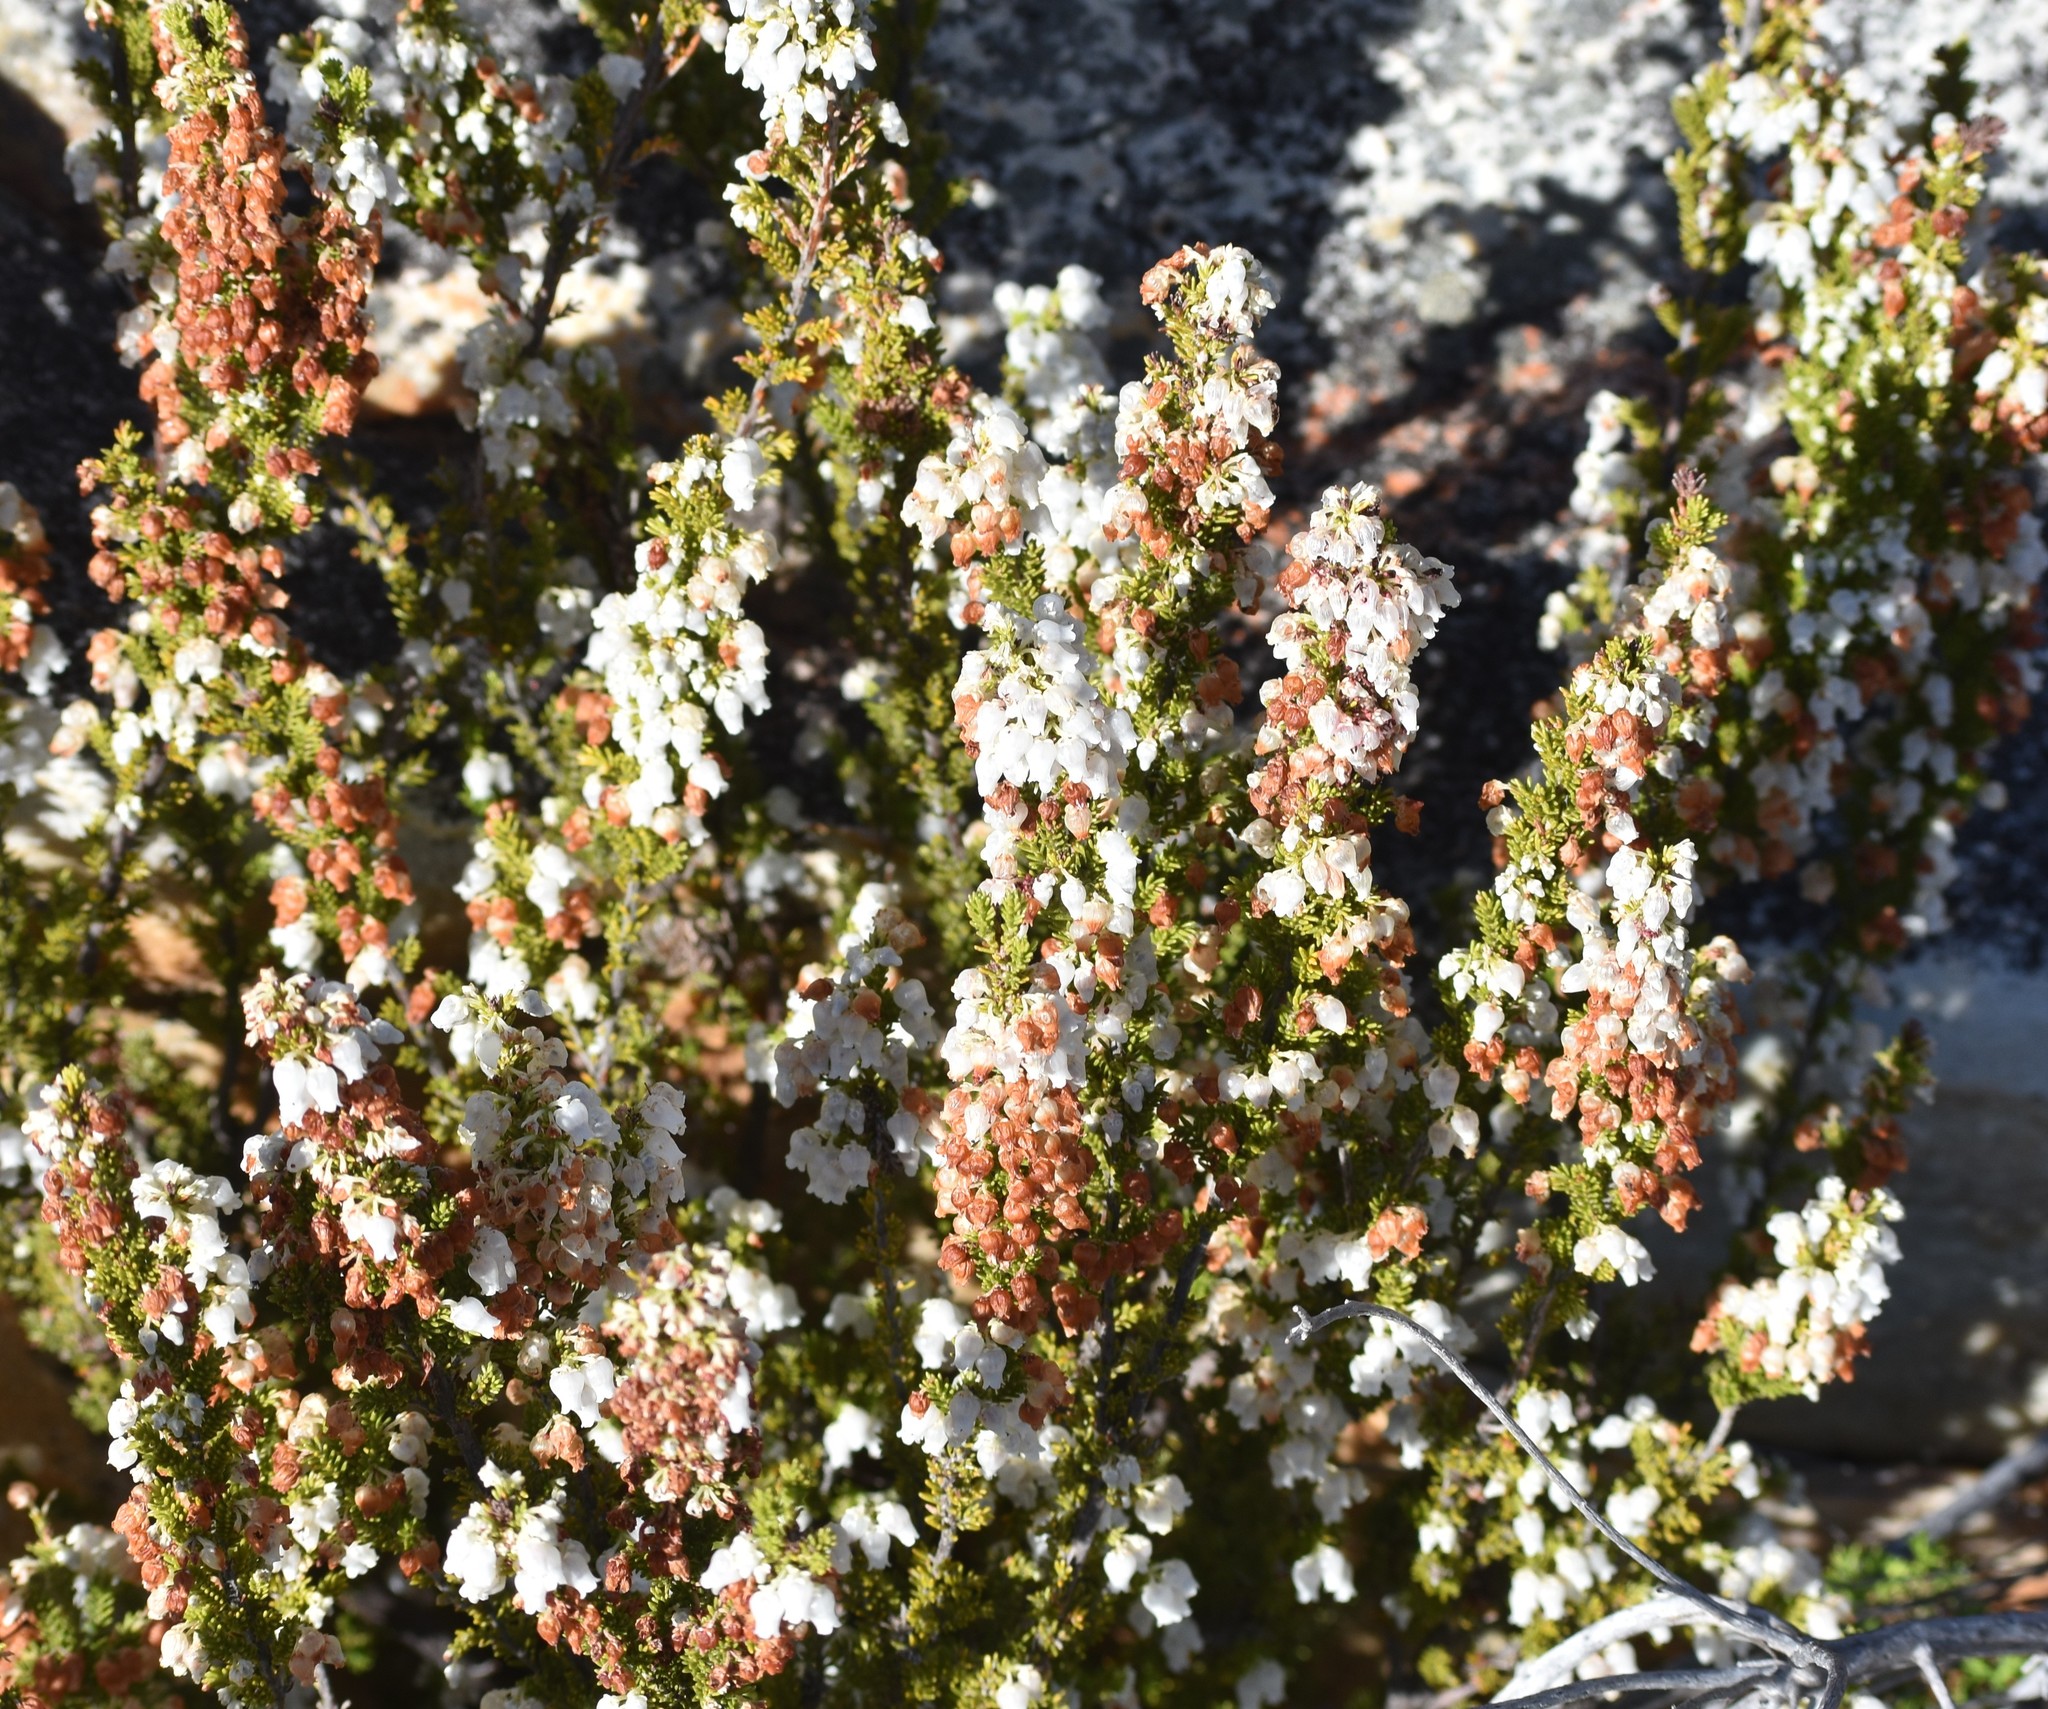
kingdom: Plantae
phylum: Tracheophyta
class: Magnoliopsida
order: Ericales
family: Ericaceae
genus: Erica
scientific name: Erica glomiflora
